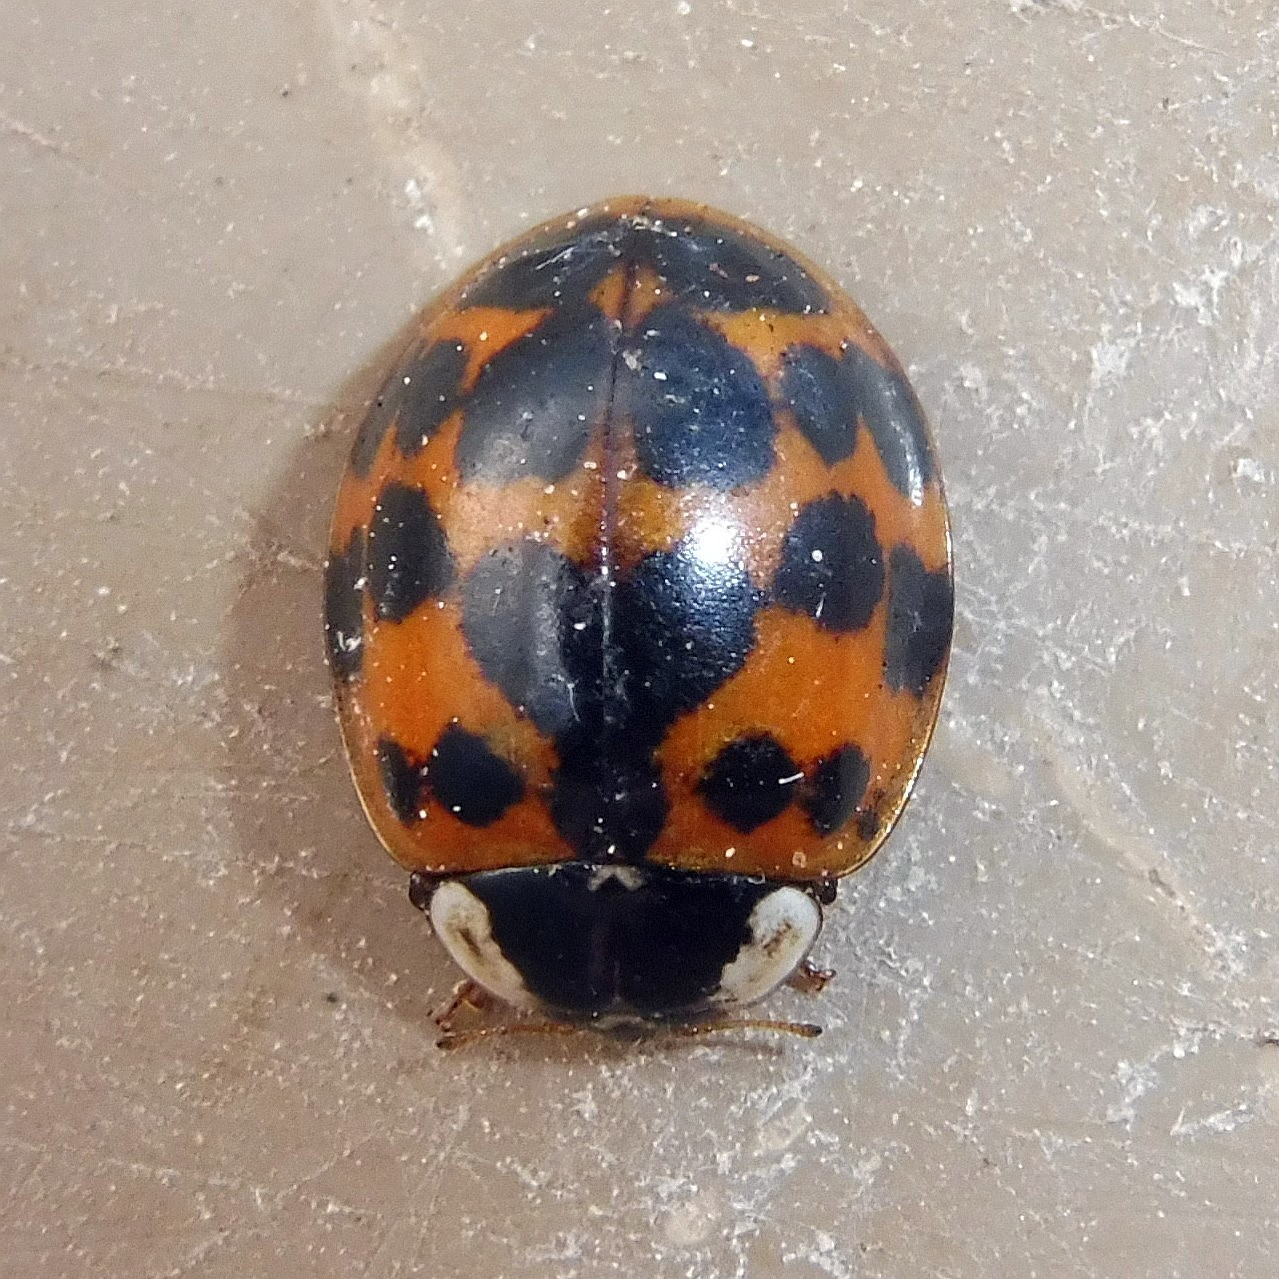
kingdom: Animalia
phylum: Arthropoda
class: Insecta
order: Coleoptera
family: Coccinellidae
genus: Harmonia
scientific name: Harmonia axyridis
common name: Harlequin ladybird
